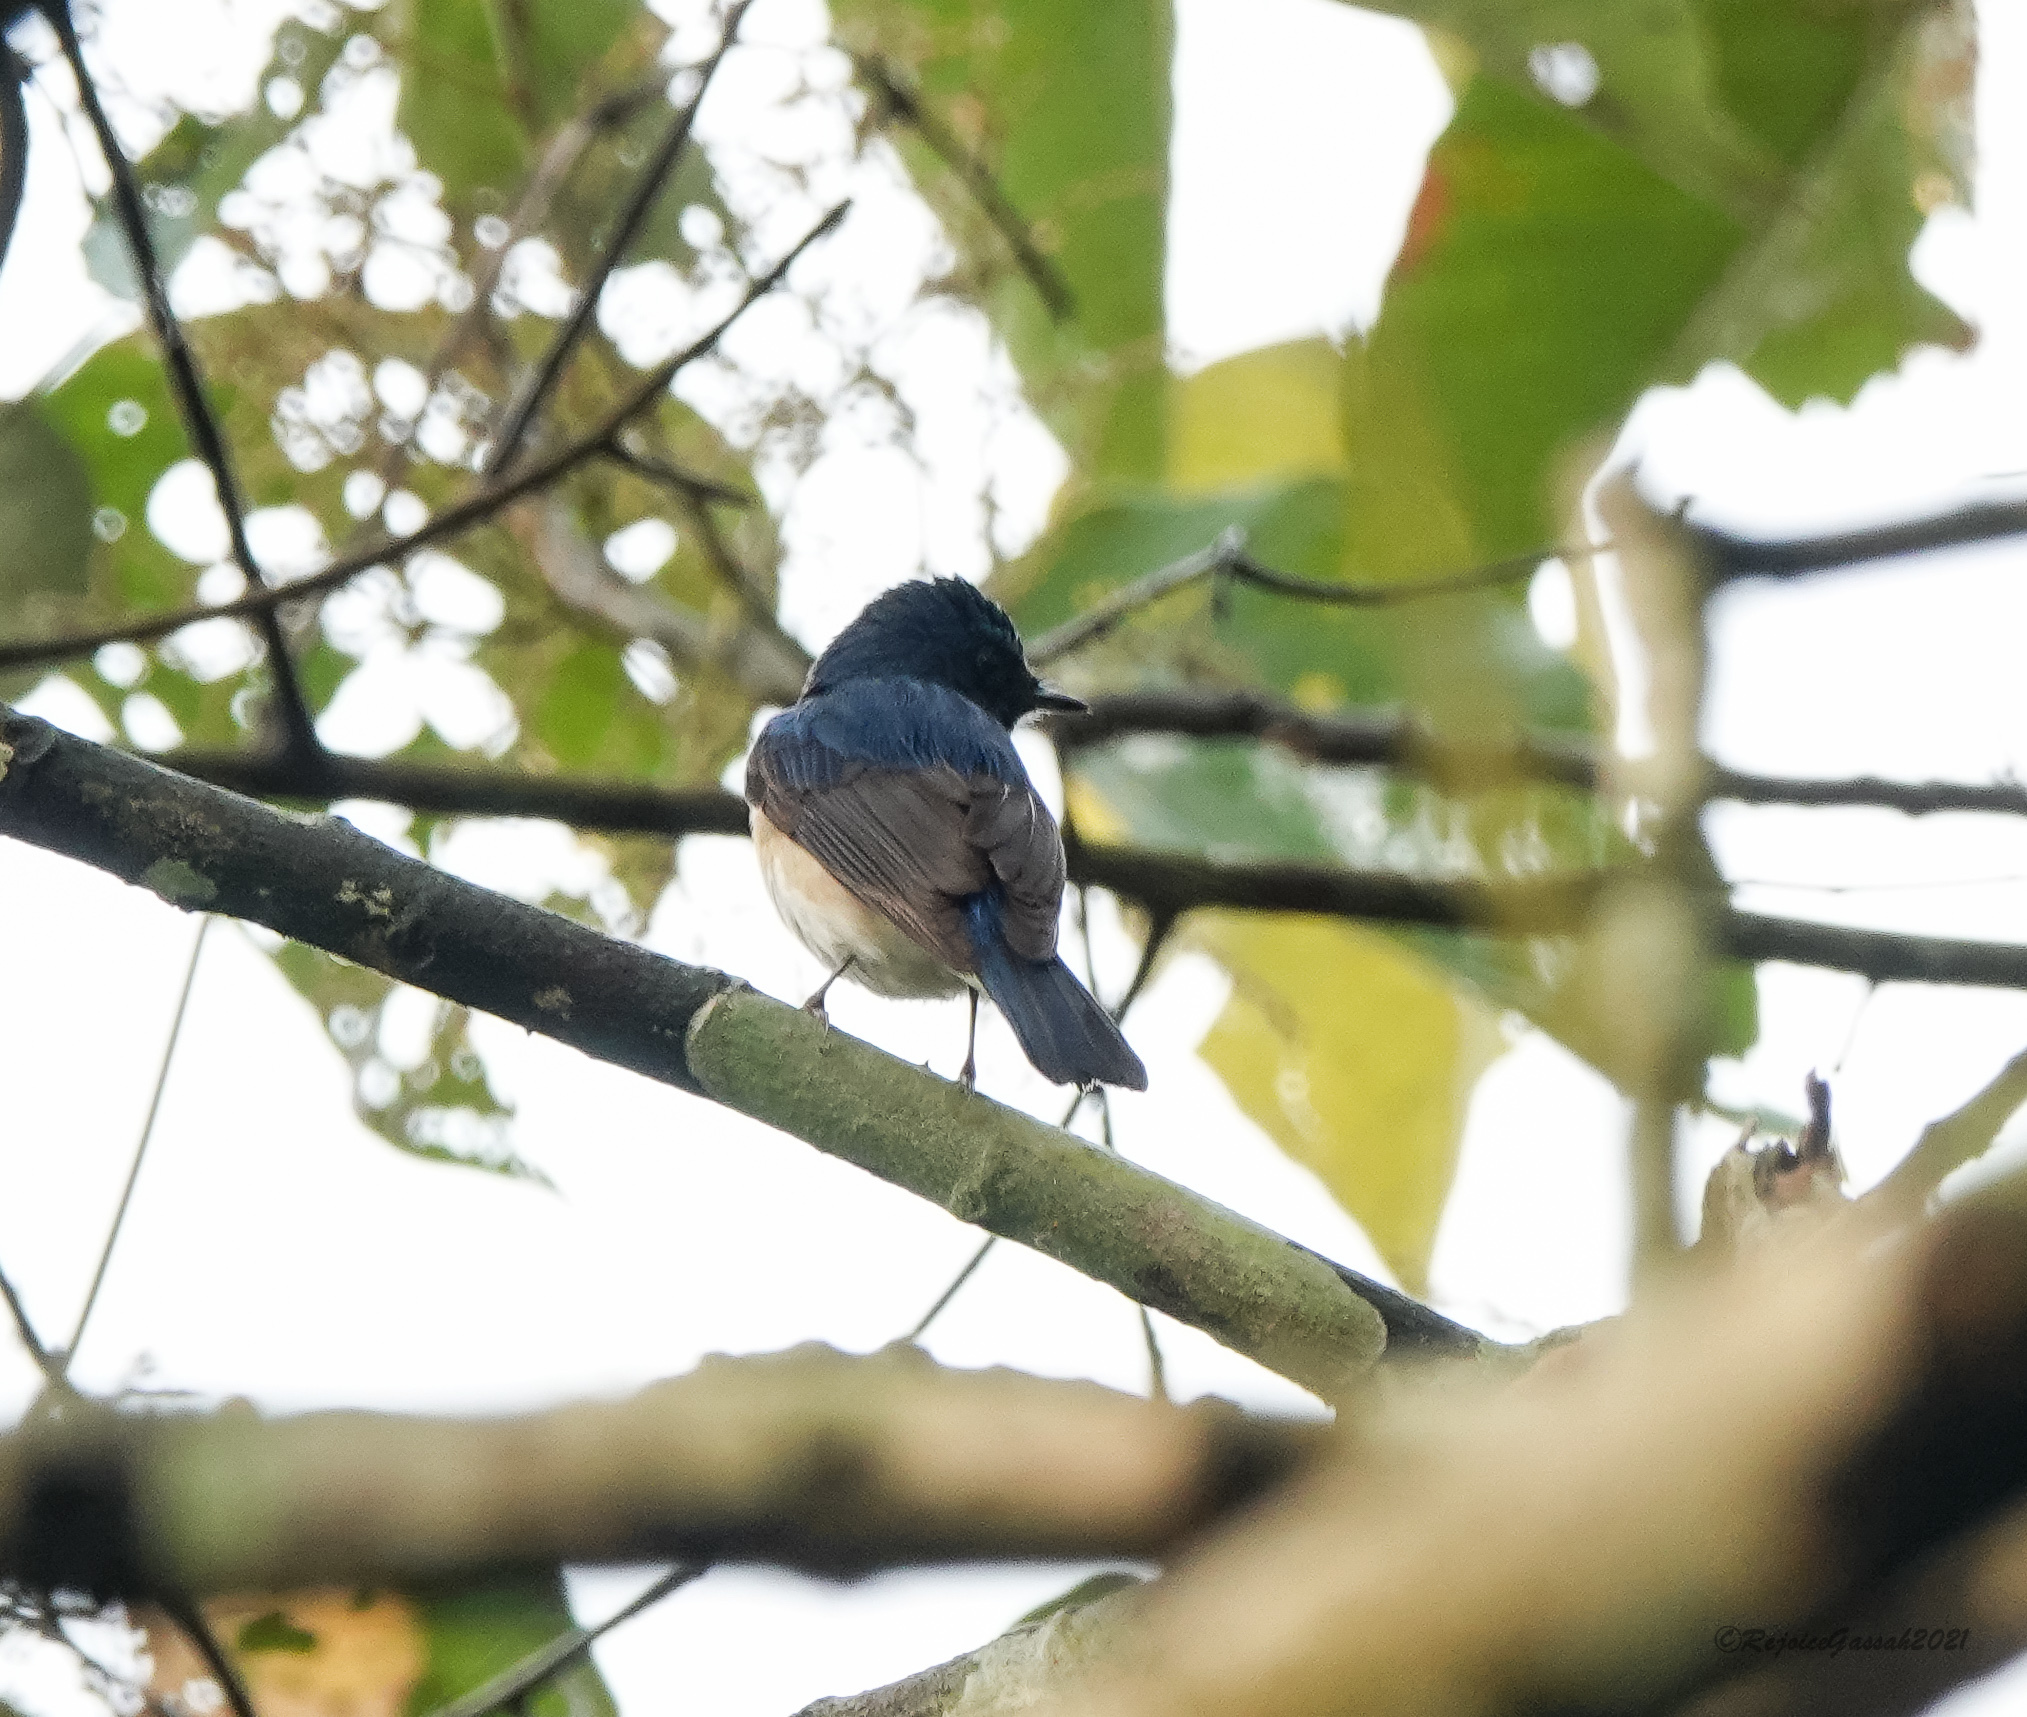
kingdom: Animalia
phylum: Chordata
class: Aves
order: Passeriformes
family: Muscicapidae
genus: Cyornis
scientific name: Cyornis rubeculoides
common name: Blue-throated blue flycatcher
